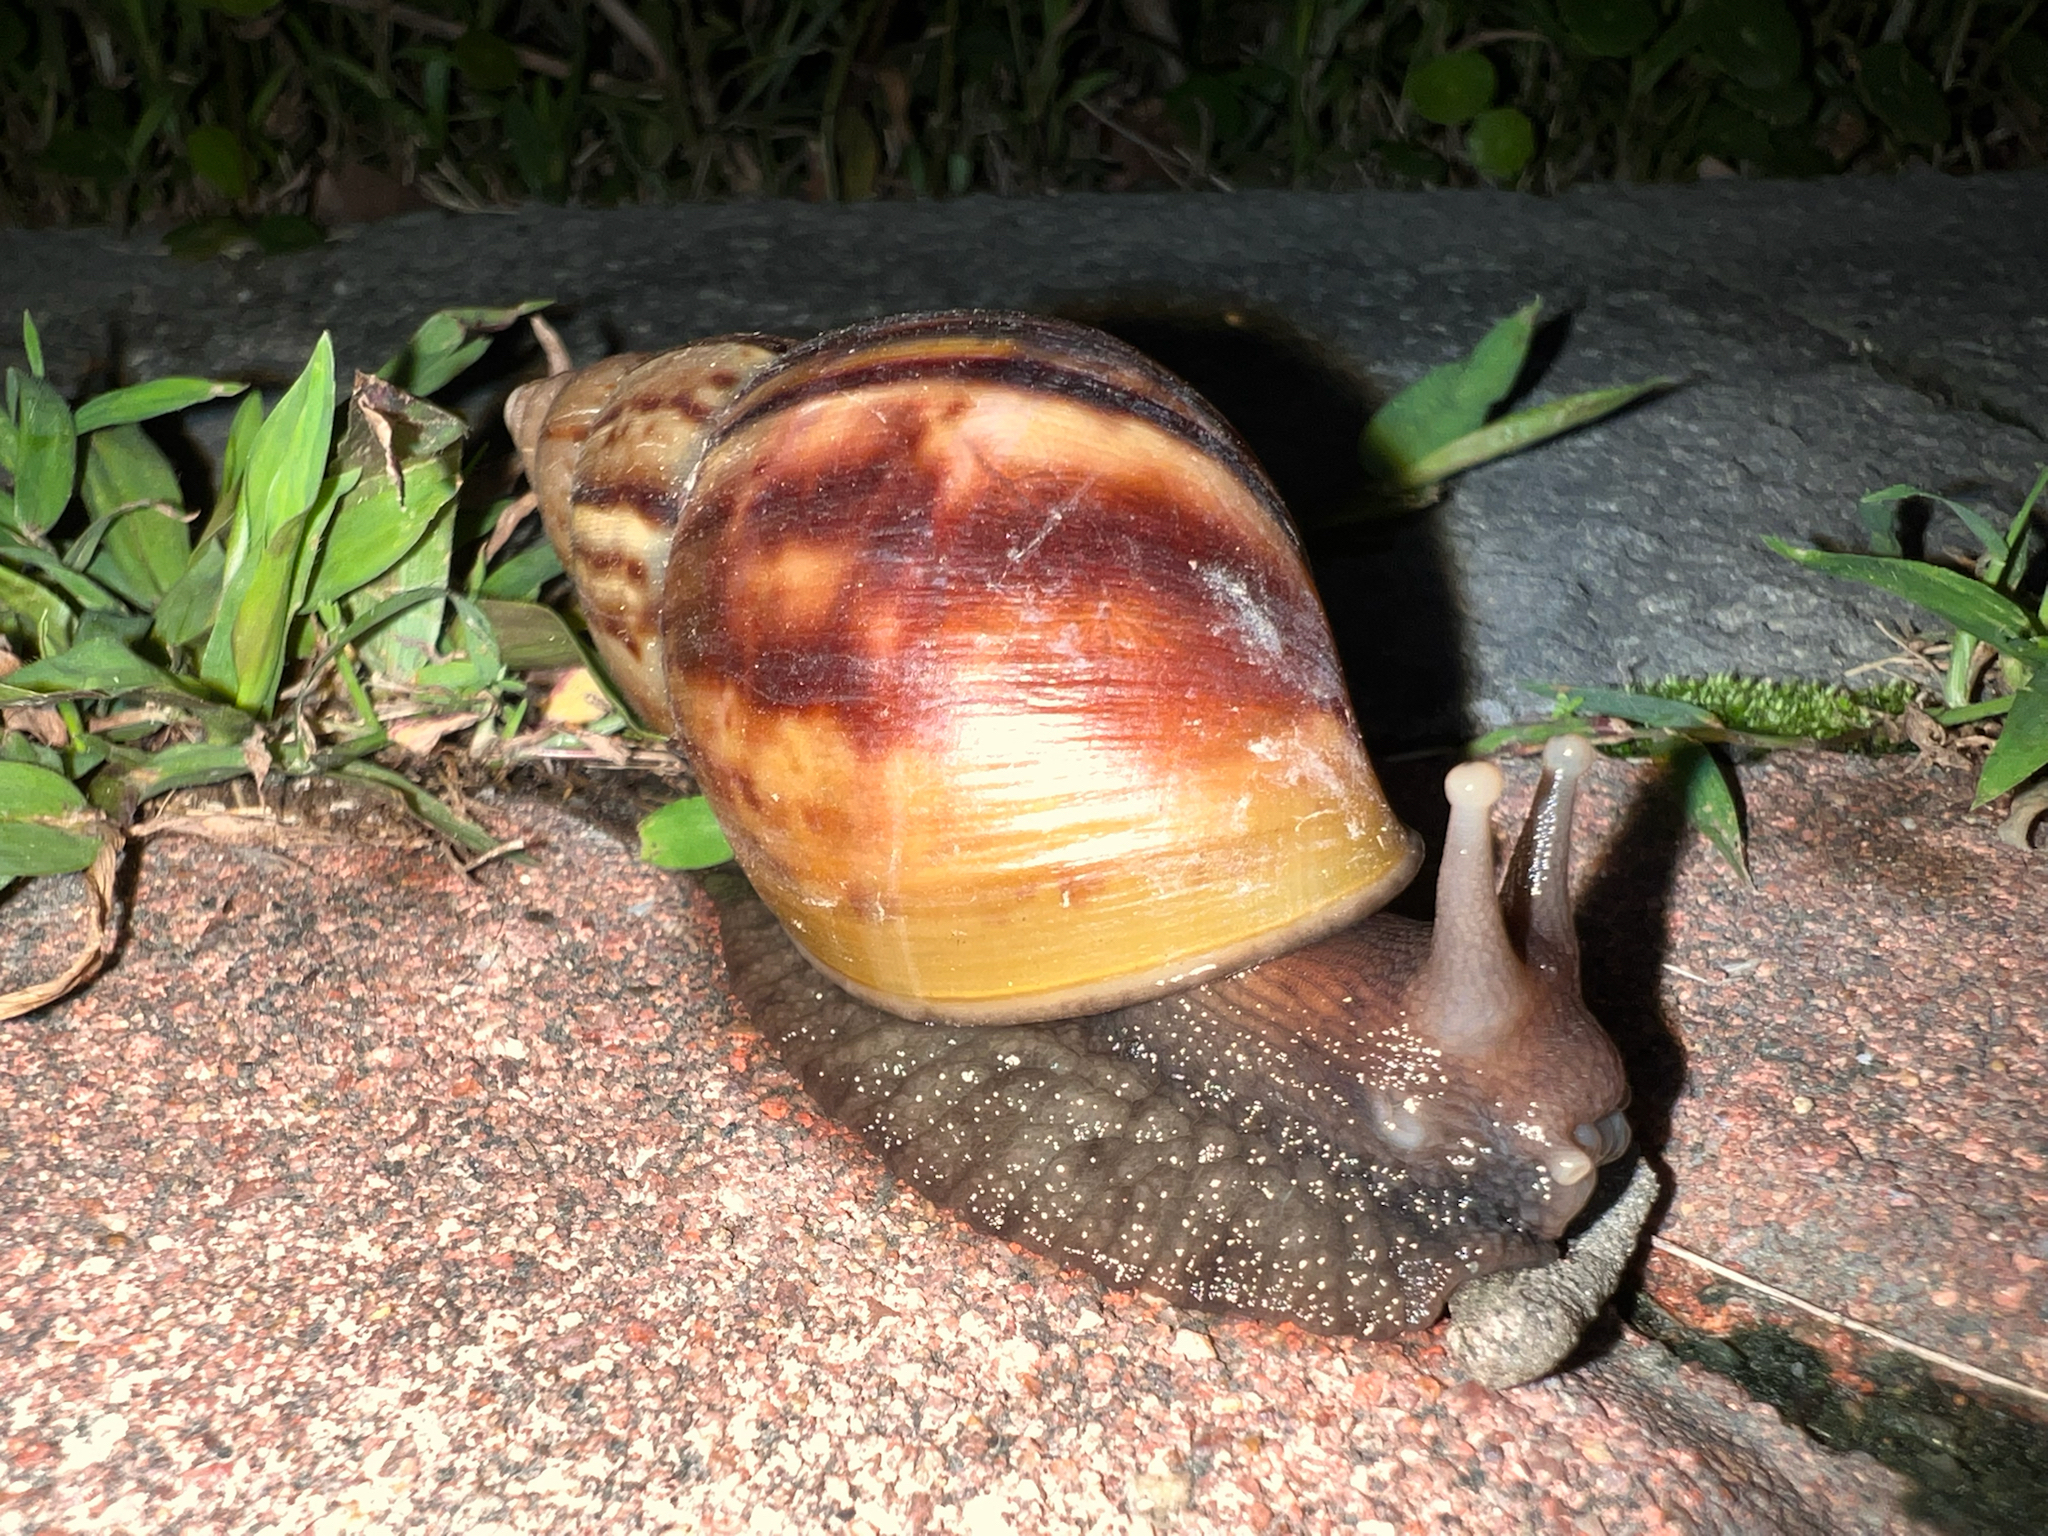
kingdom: Animalia
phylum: Mollusca
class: Gastropoda
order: Stylommatophora
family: Achatinidae
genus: Lissachatina
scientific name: Lissachatina fulica
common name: Giant african snail
